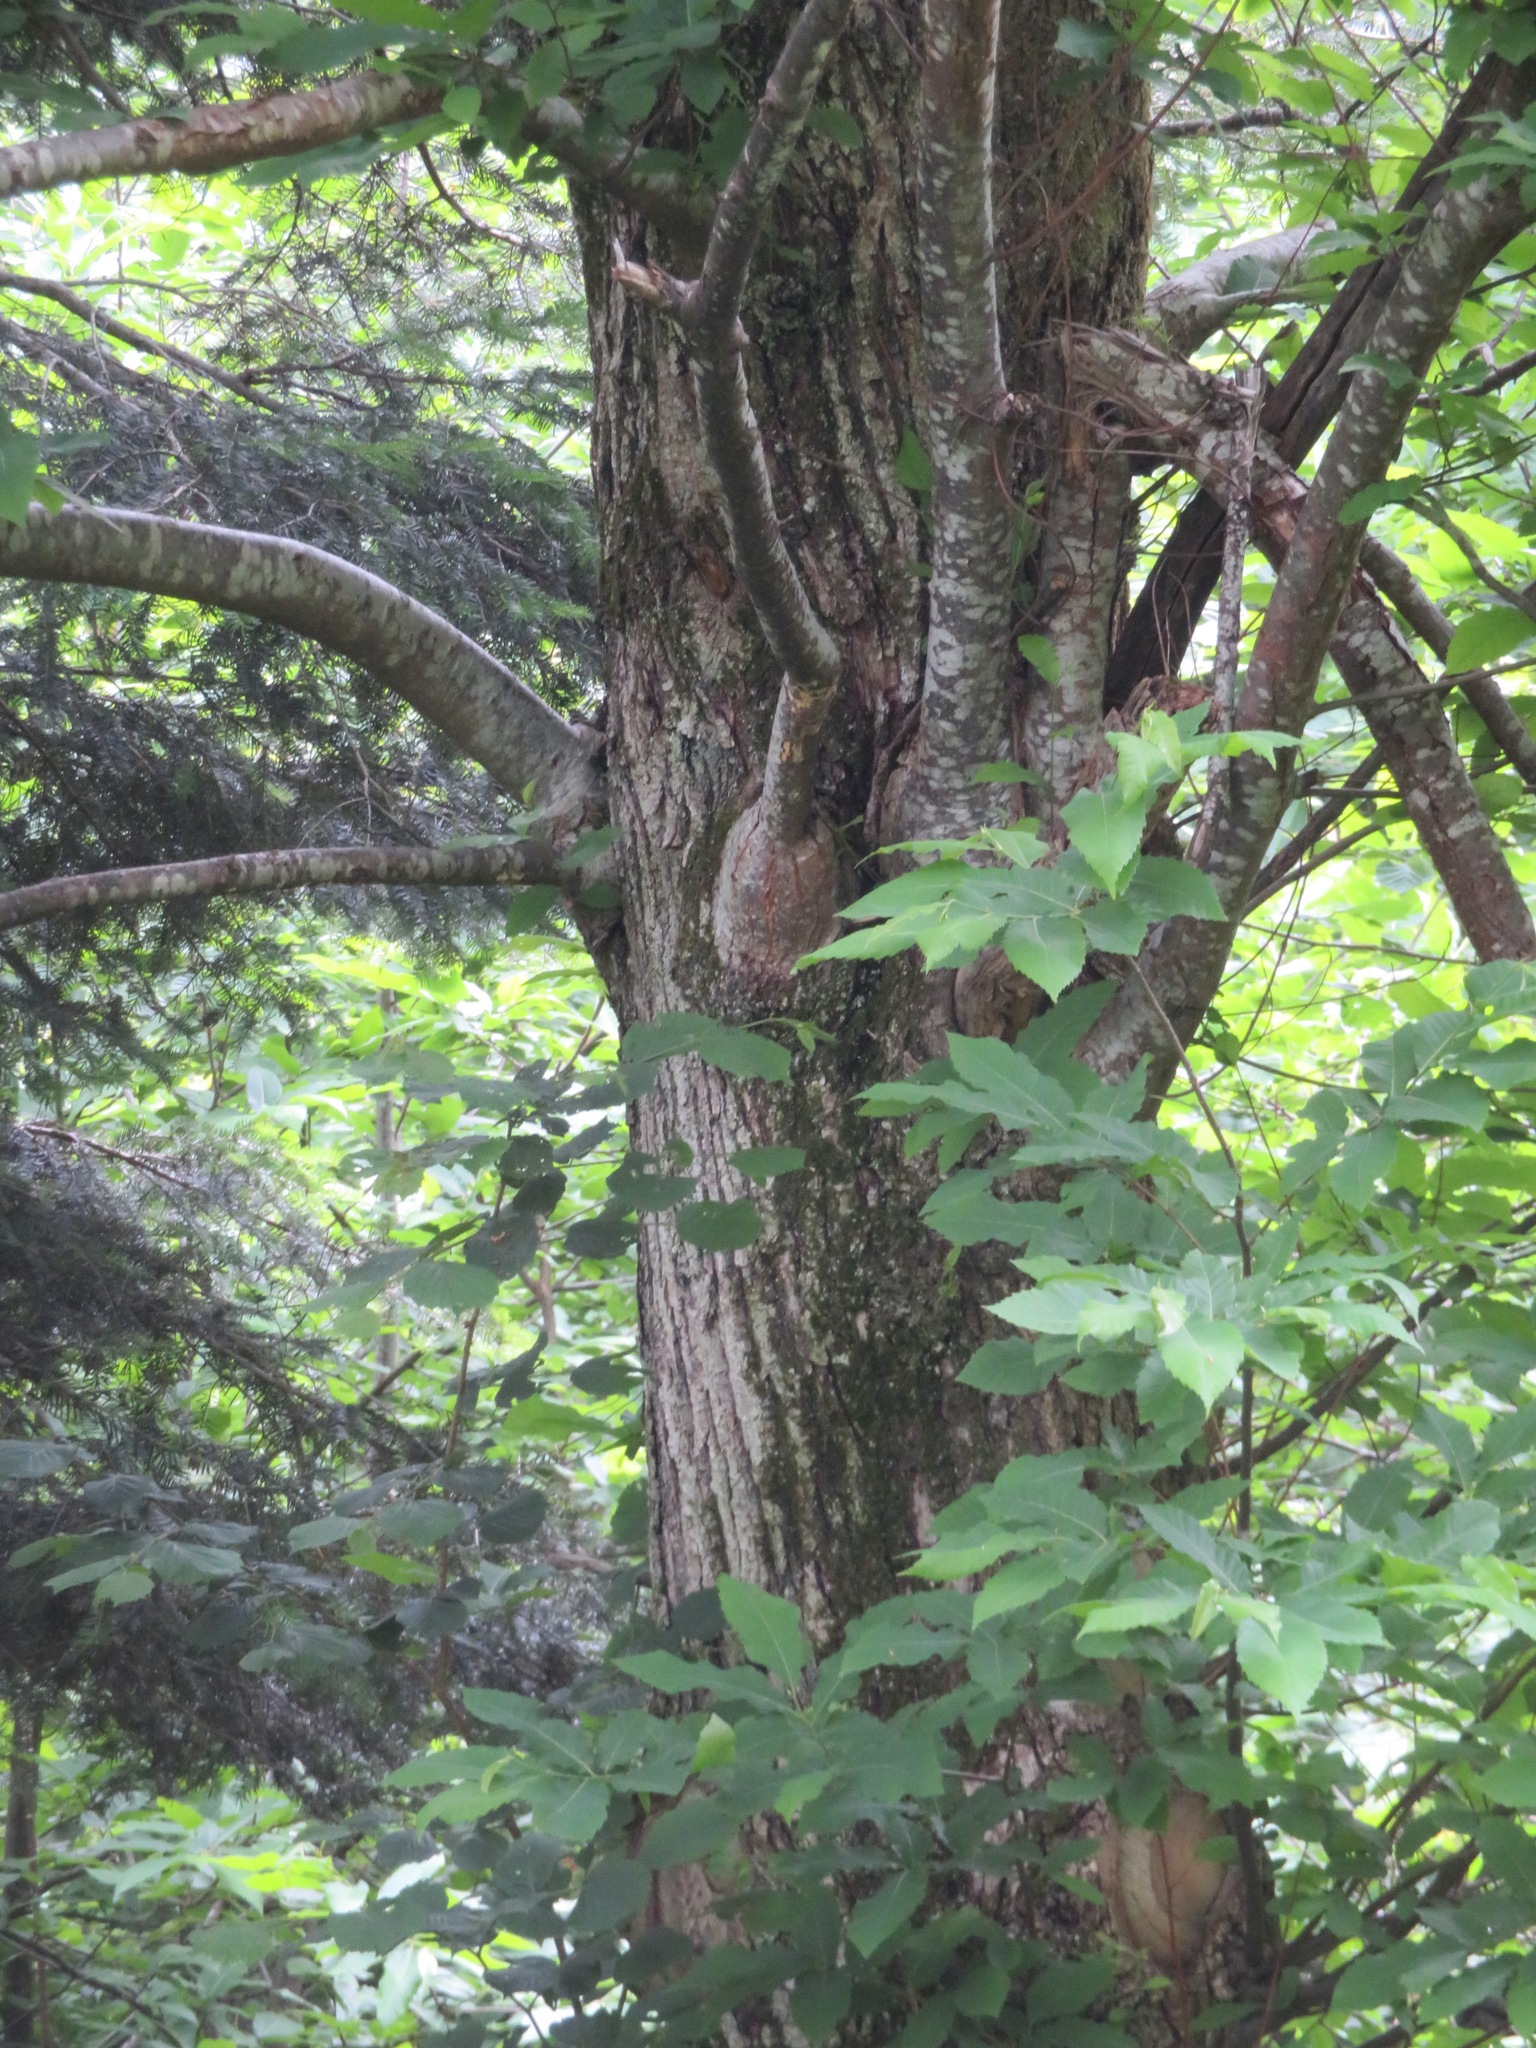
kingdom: Plantae
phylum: Tracheophyta
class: Magnoliopsida
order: Fagales
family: Fagaceae
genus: Castanea
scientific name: Castanea sativa
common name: Sweet chestnut
